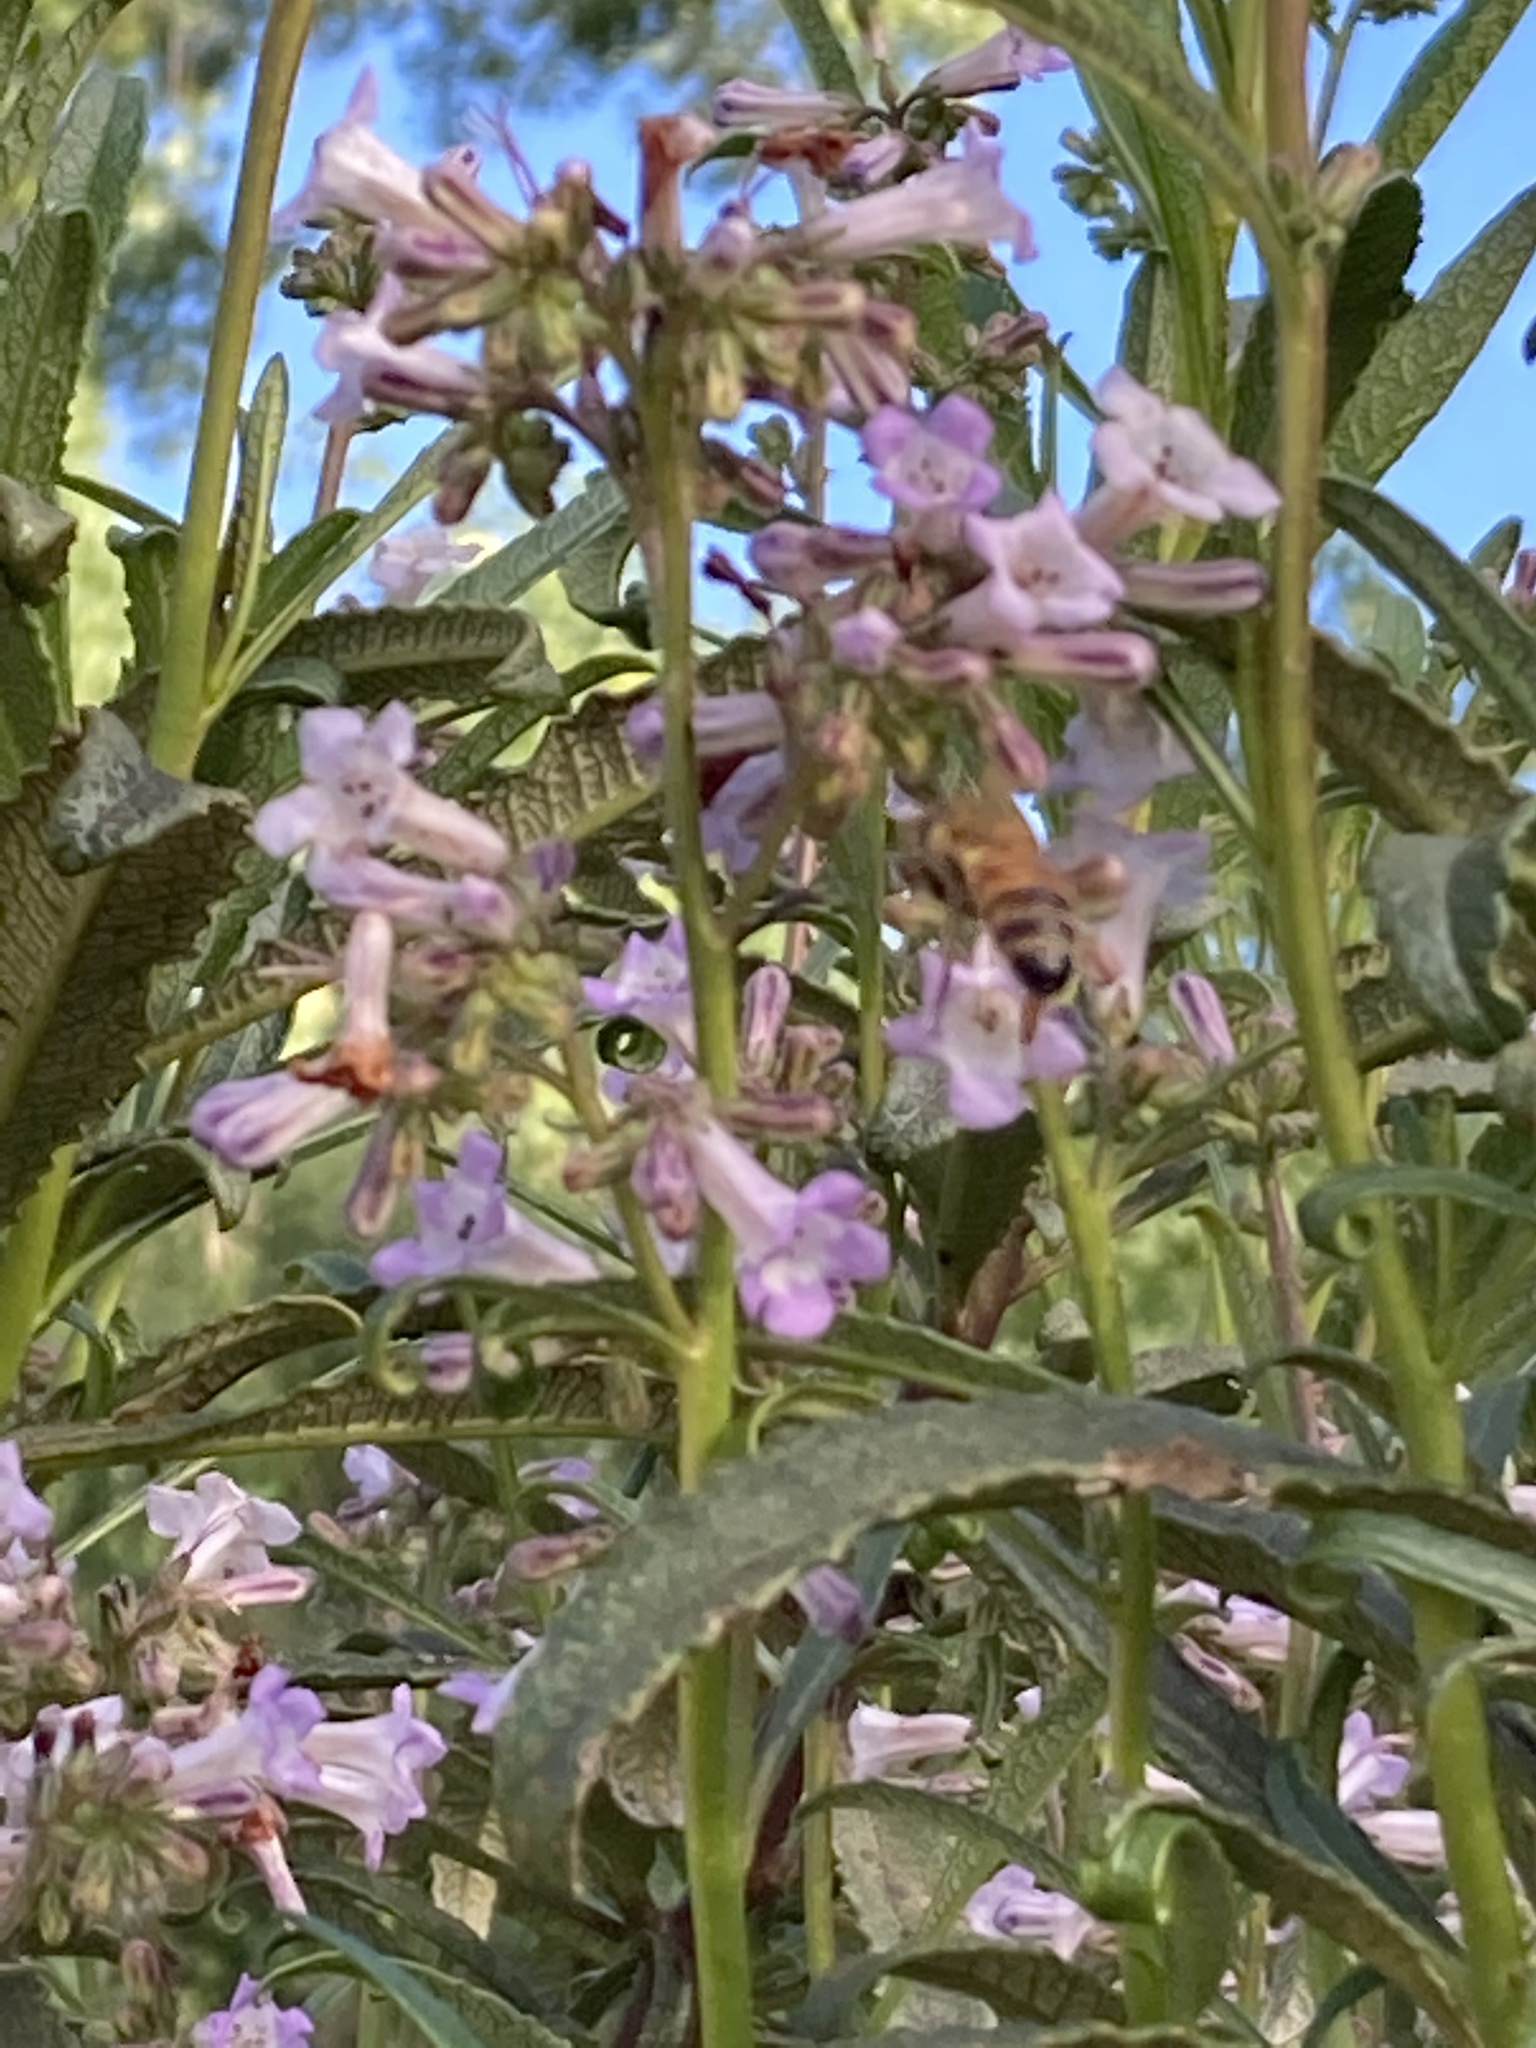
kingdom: Animalia
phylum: Arthropoda
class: Insecta
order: Hymenoptera
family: Apidae
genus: Apis
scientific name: Apis mellifera
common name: Honey bee
